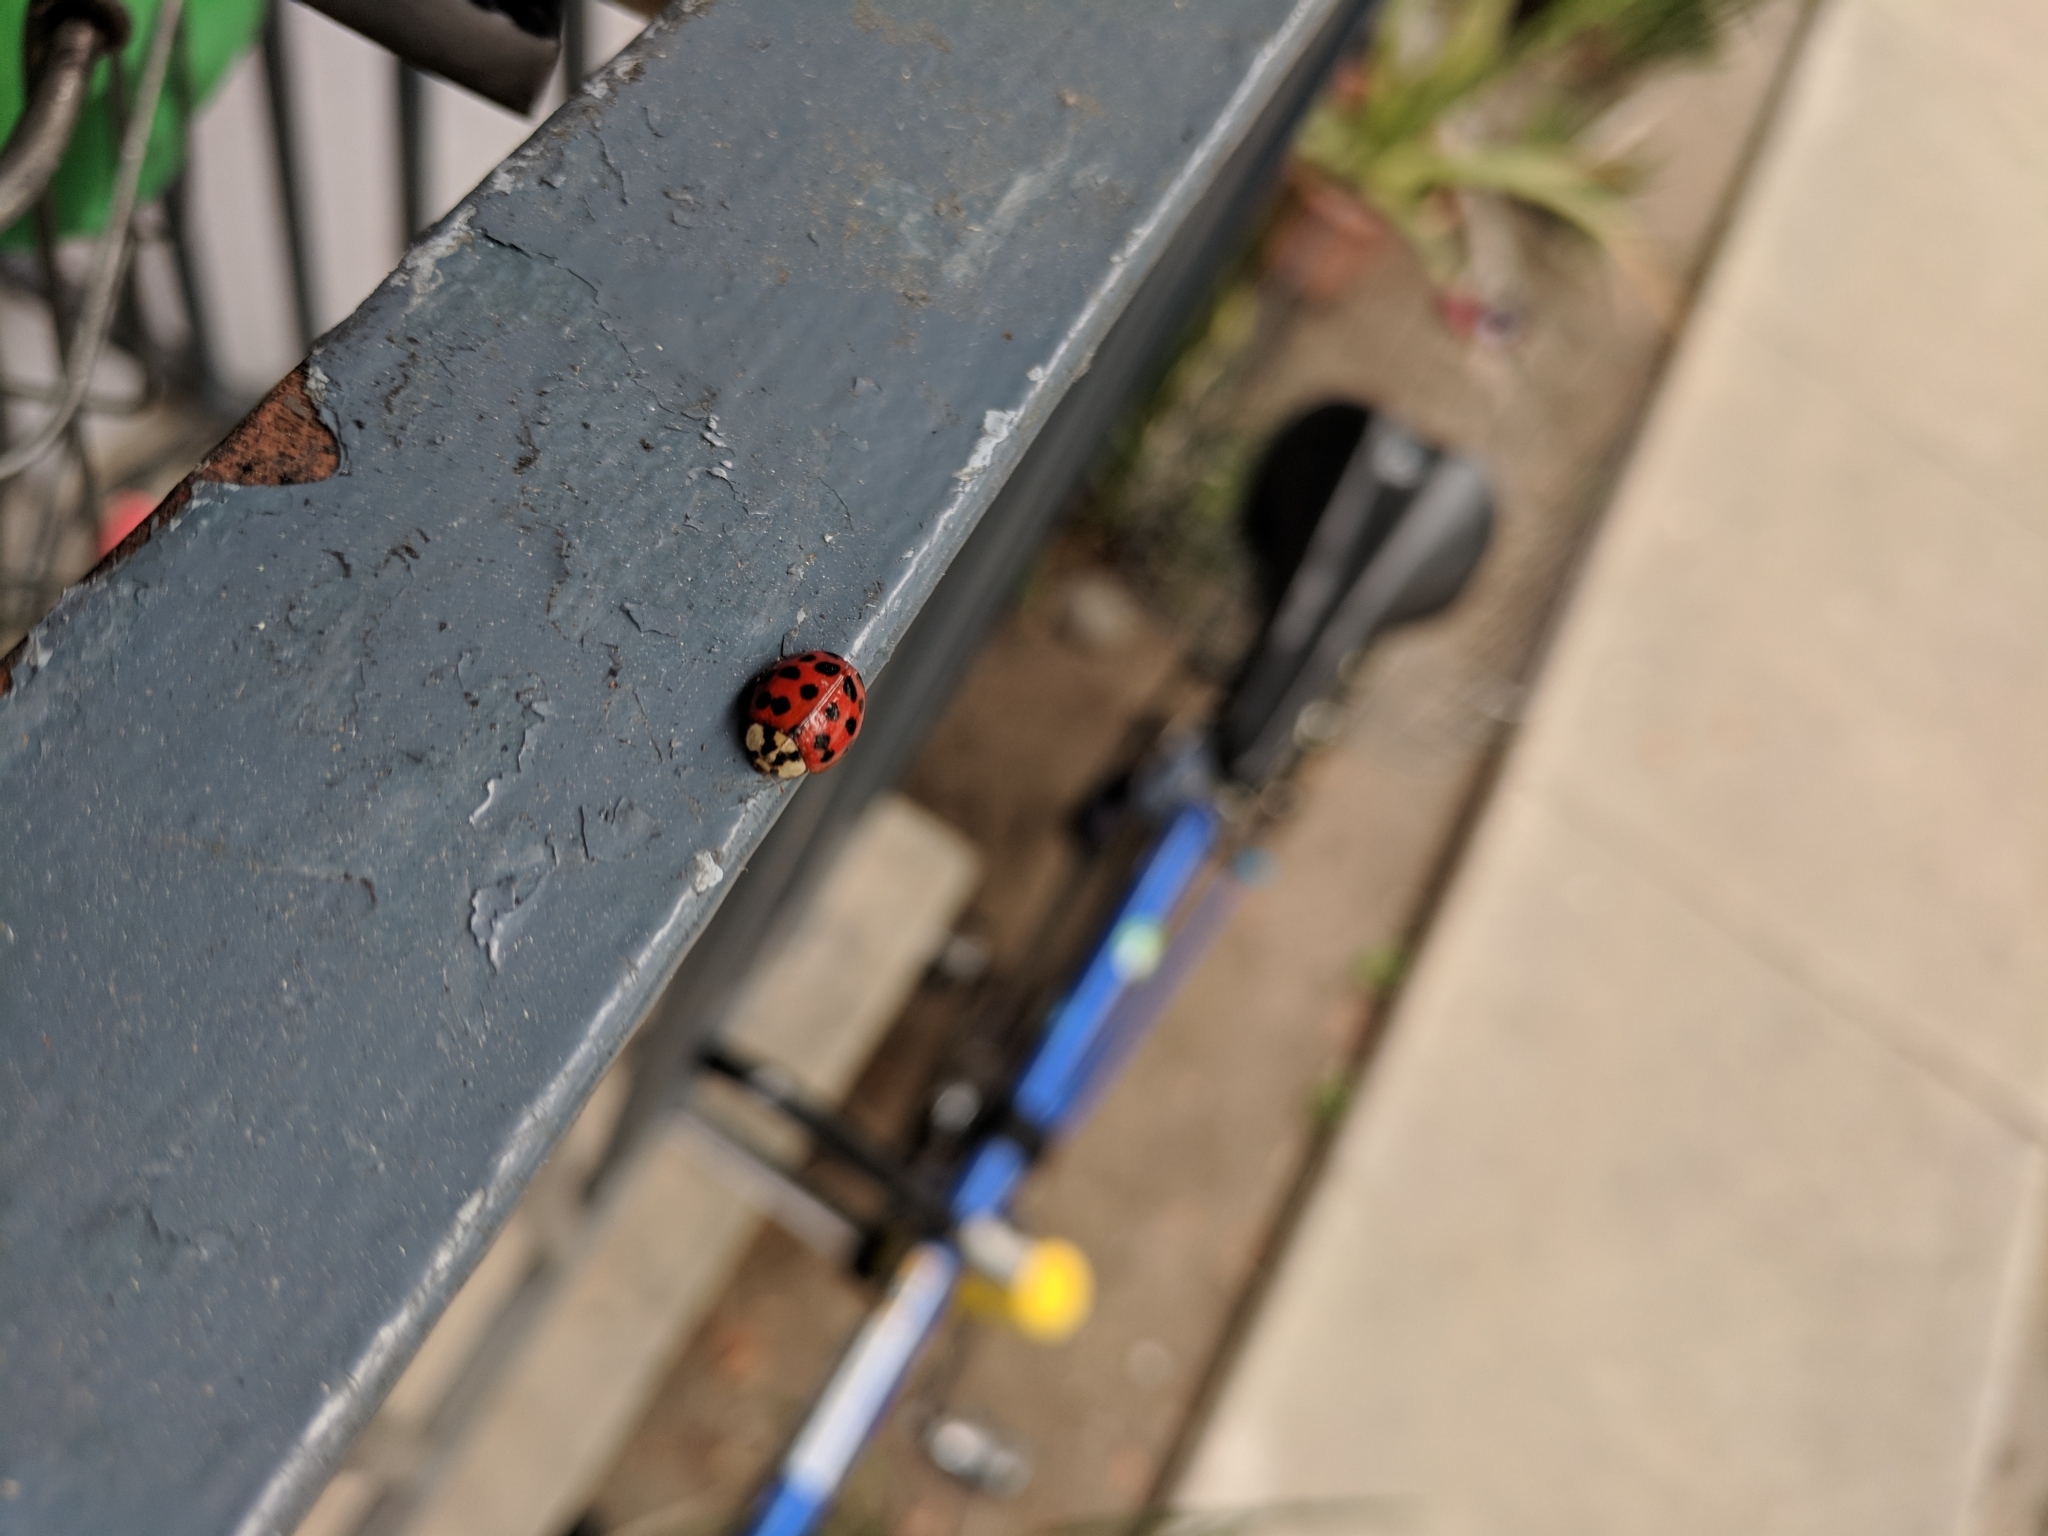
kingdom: Animalia
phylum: Arthropoda
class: Insecta
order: Coleoptera
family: Coccinellidae
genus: Harmonia
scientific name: Harmonia axyridis
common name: Harlequin ladybird
